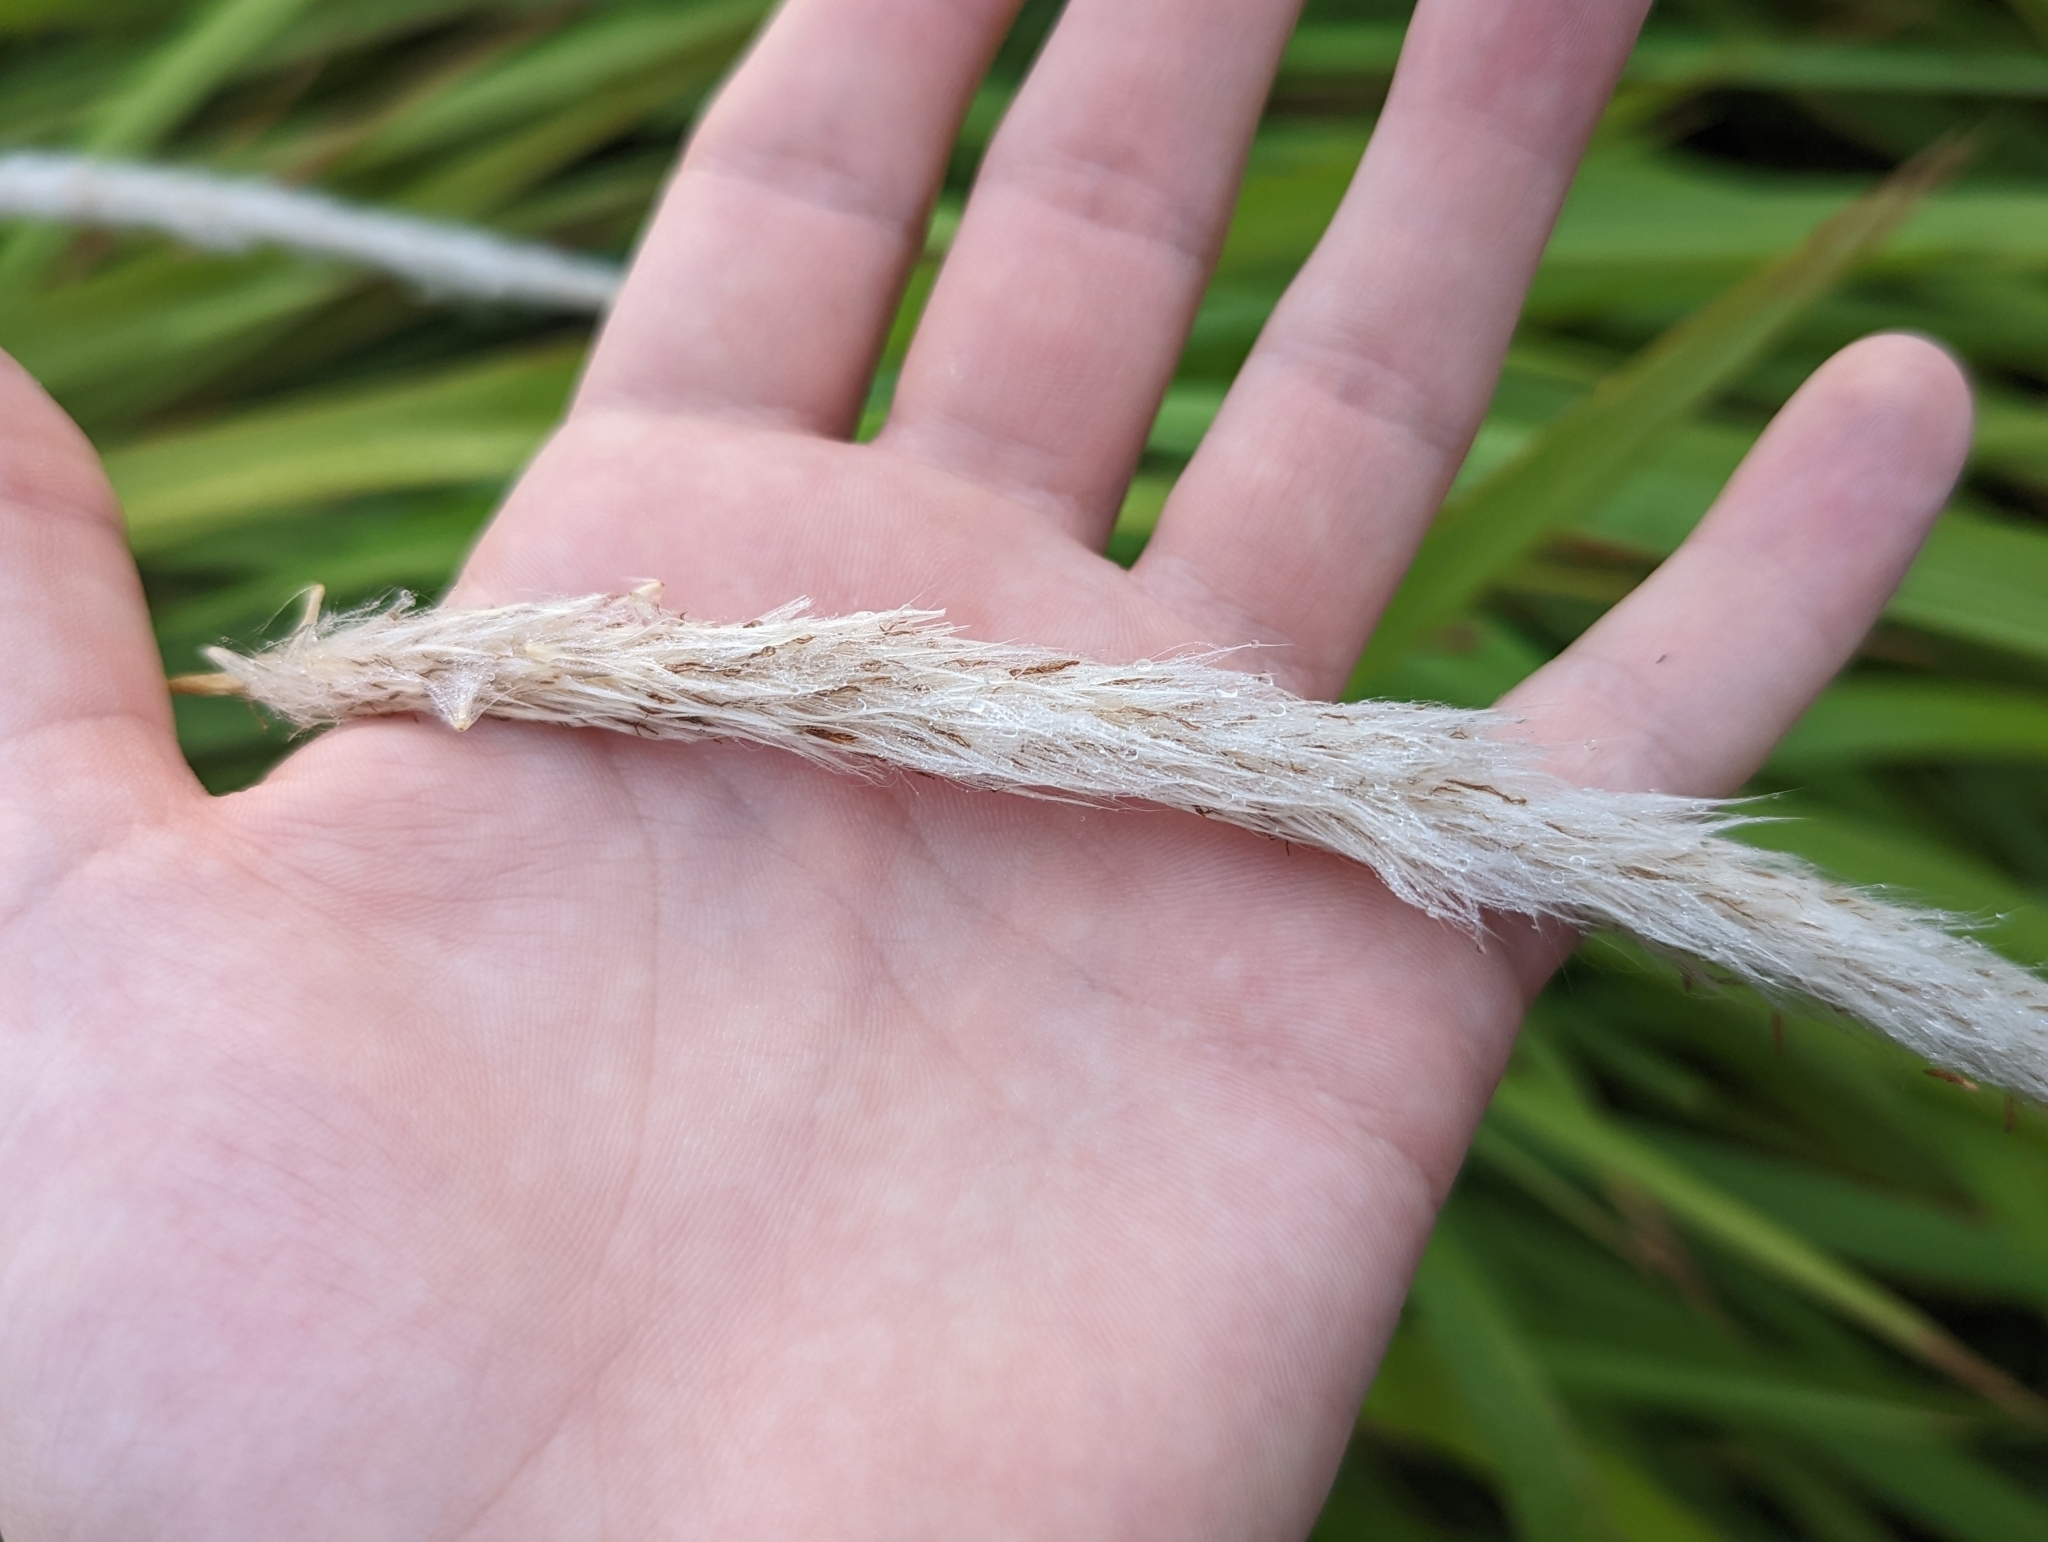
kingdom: Plantae
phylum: Tracheophyta
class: Liliopsida
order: Poales
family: Poaceae
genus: Imperata
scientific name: Imperata cylindrica
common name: Cogongrass
